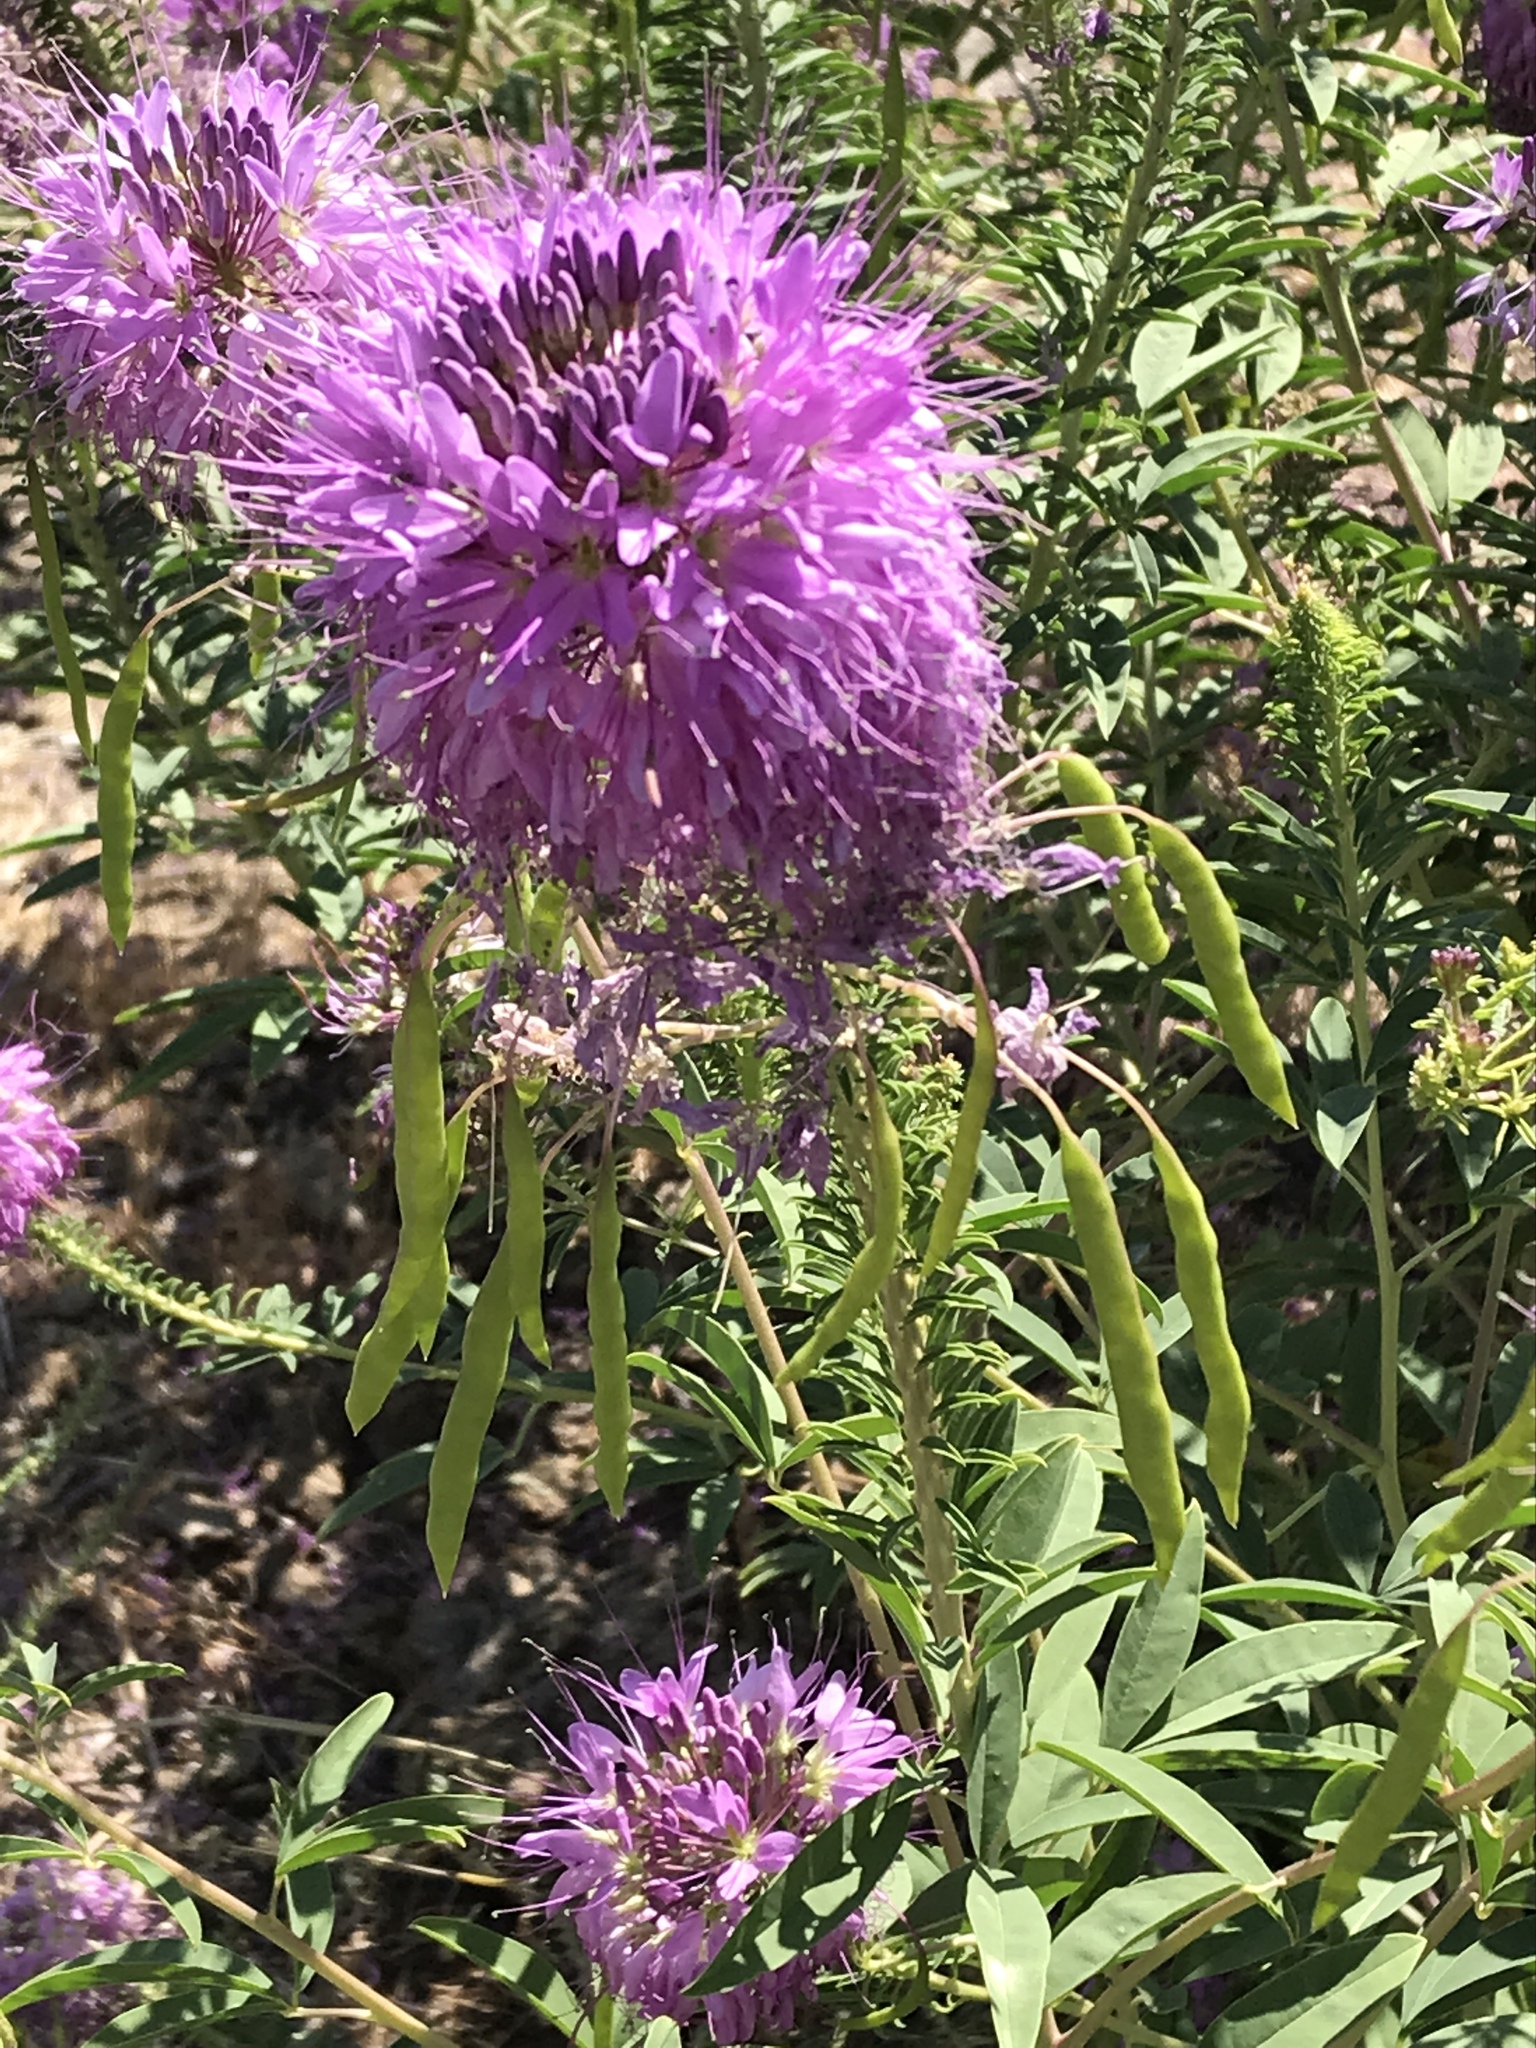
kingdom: Plantae
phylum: Tracheophyta
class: Magnoliopsida
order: Brassicales
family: Cleomaceae
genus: Cleomella
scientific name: Cleomella serrulata
